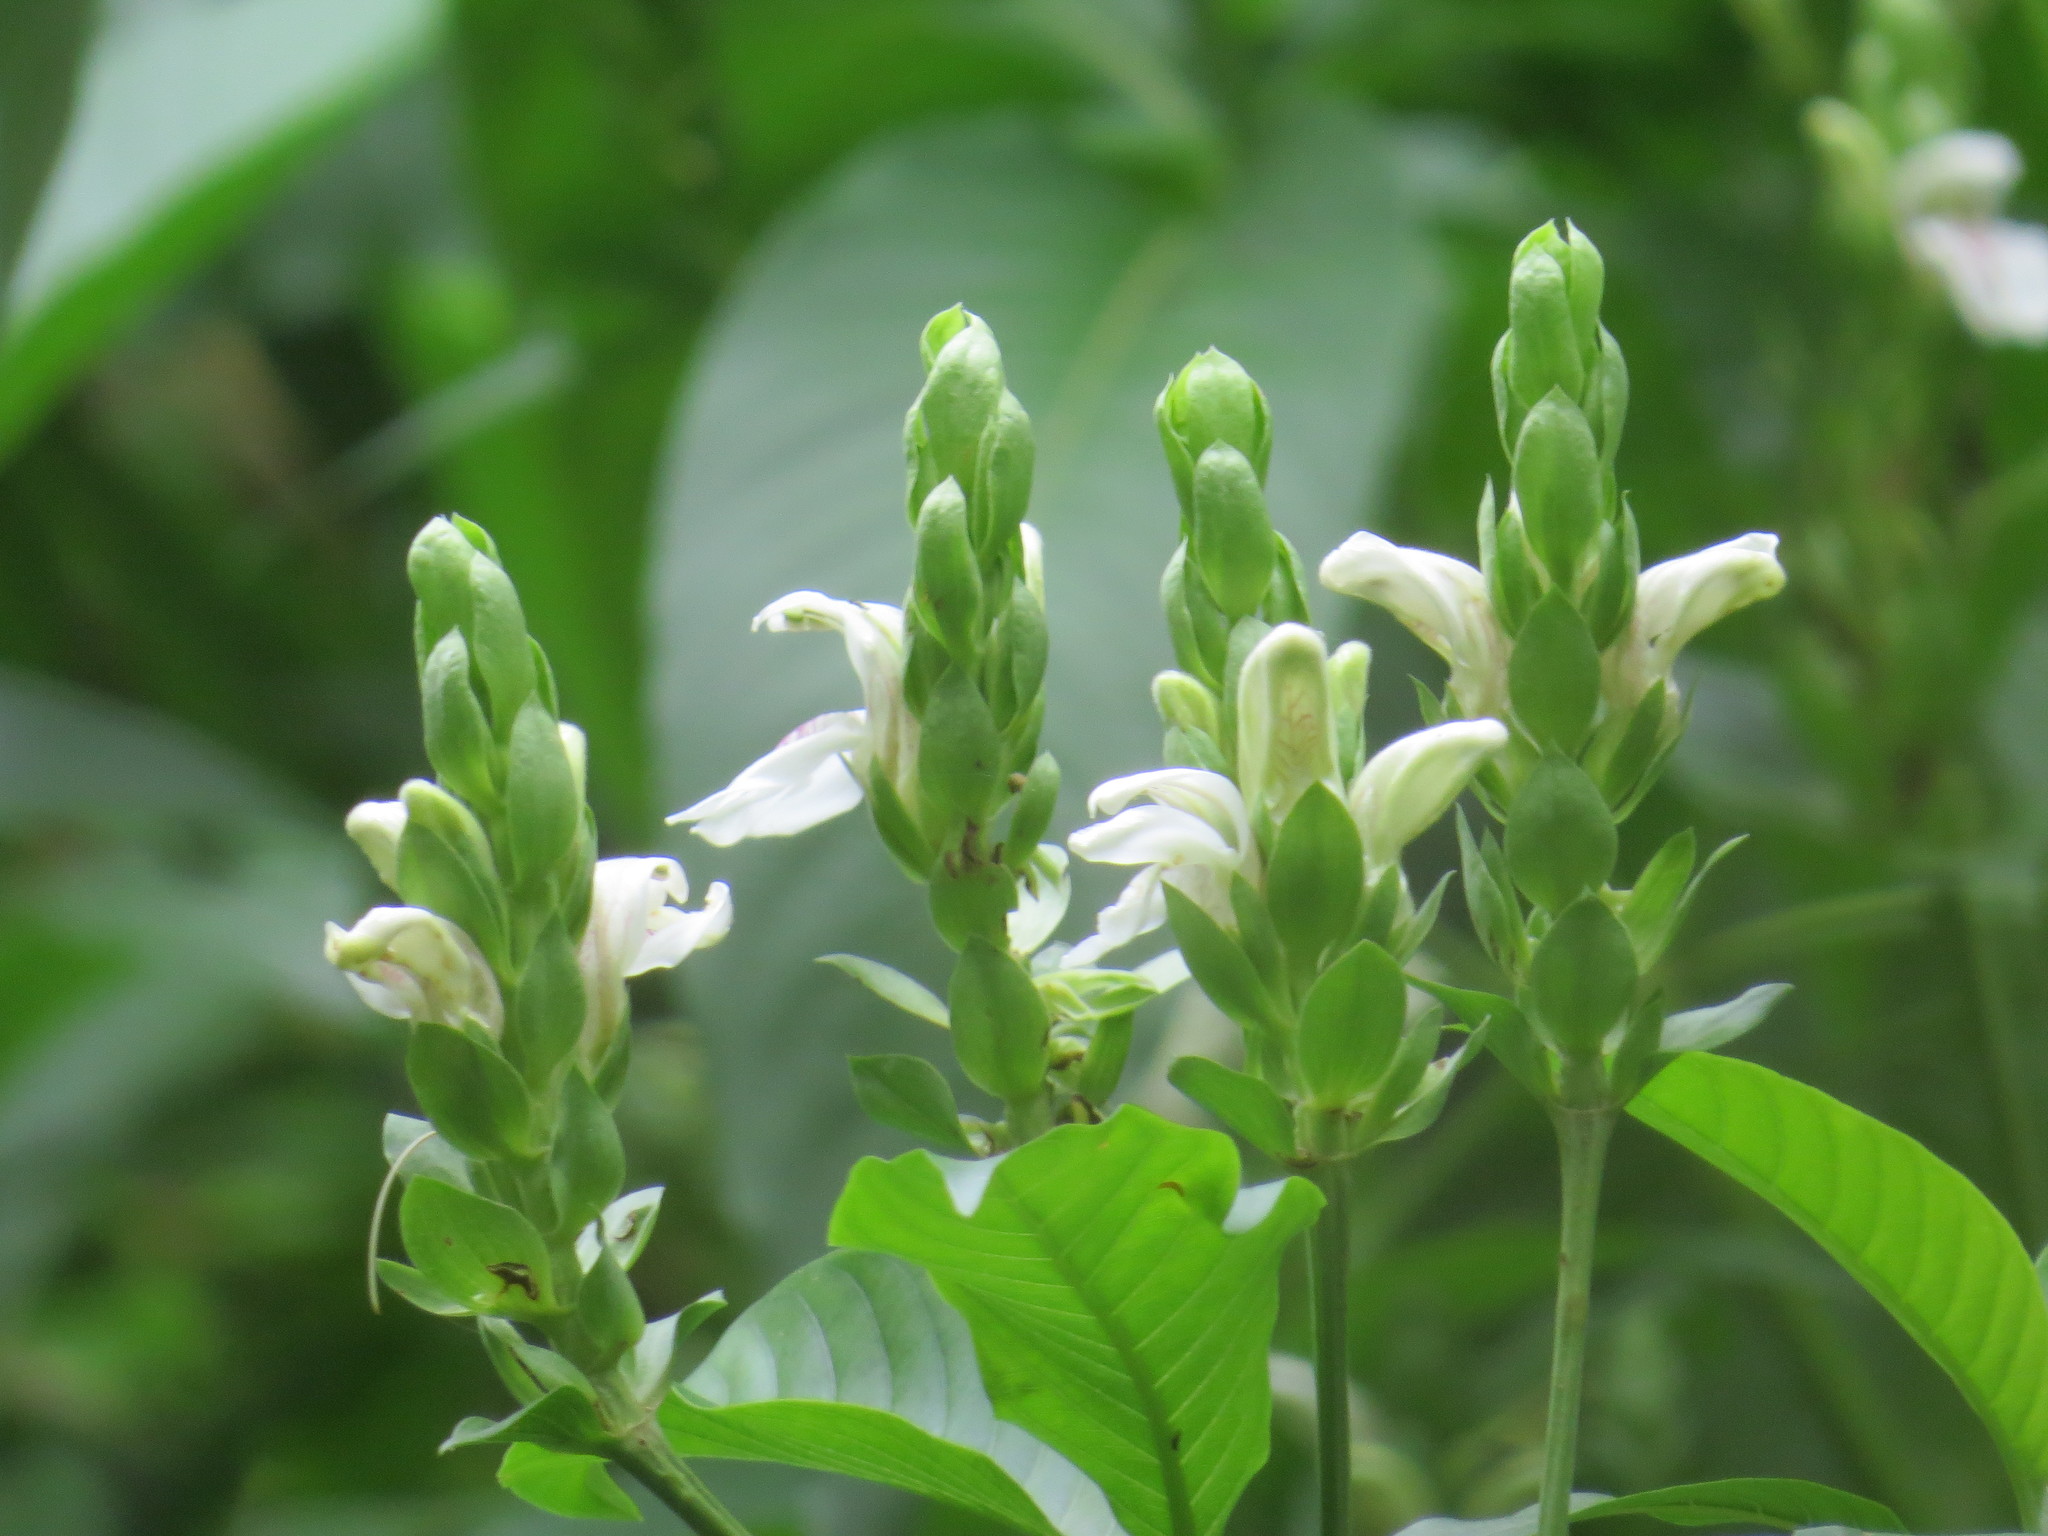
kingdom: Plantae
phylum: Tracheophyta
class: Magnoliopsida
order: Lamiales
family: Acanthaceae
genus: Justicia
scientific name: Justicia adhatoda
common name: Malabar nut
